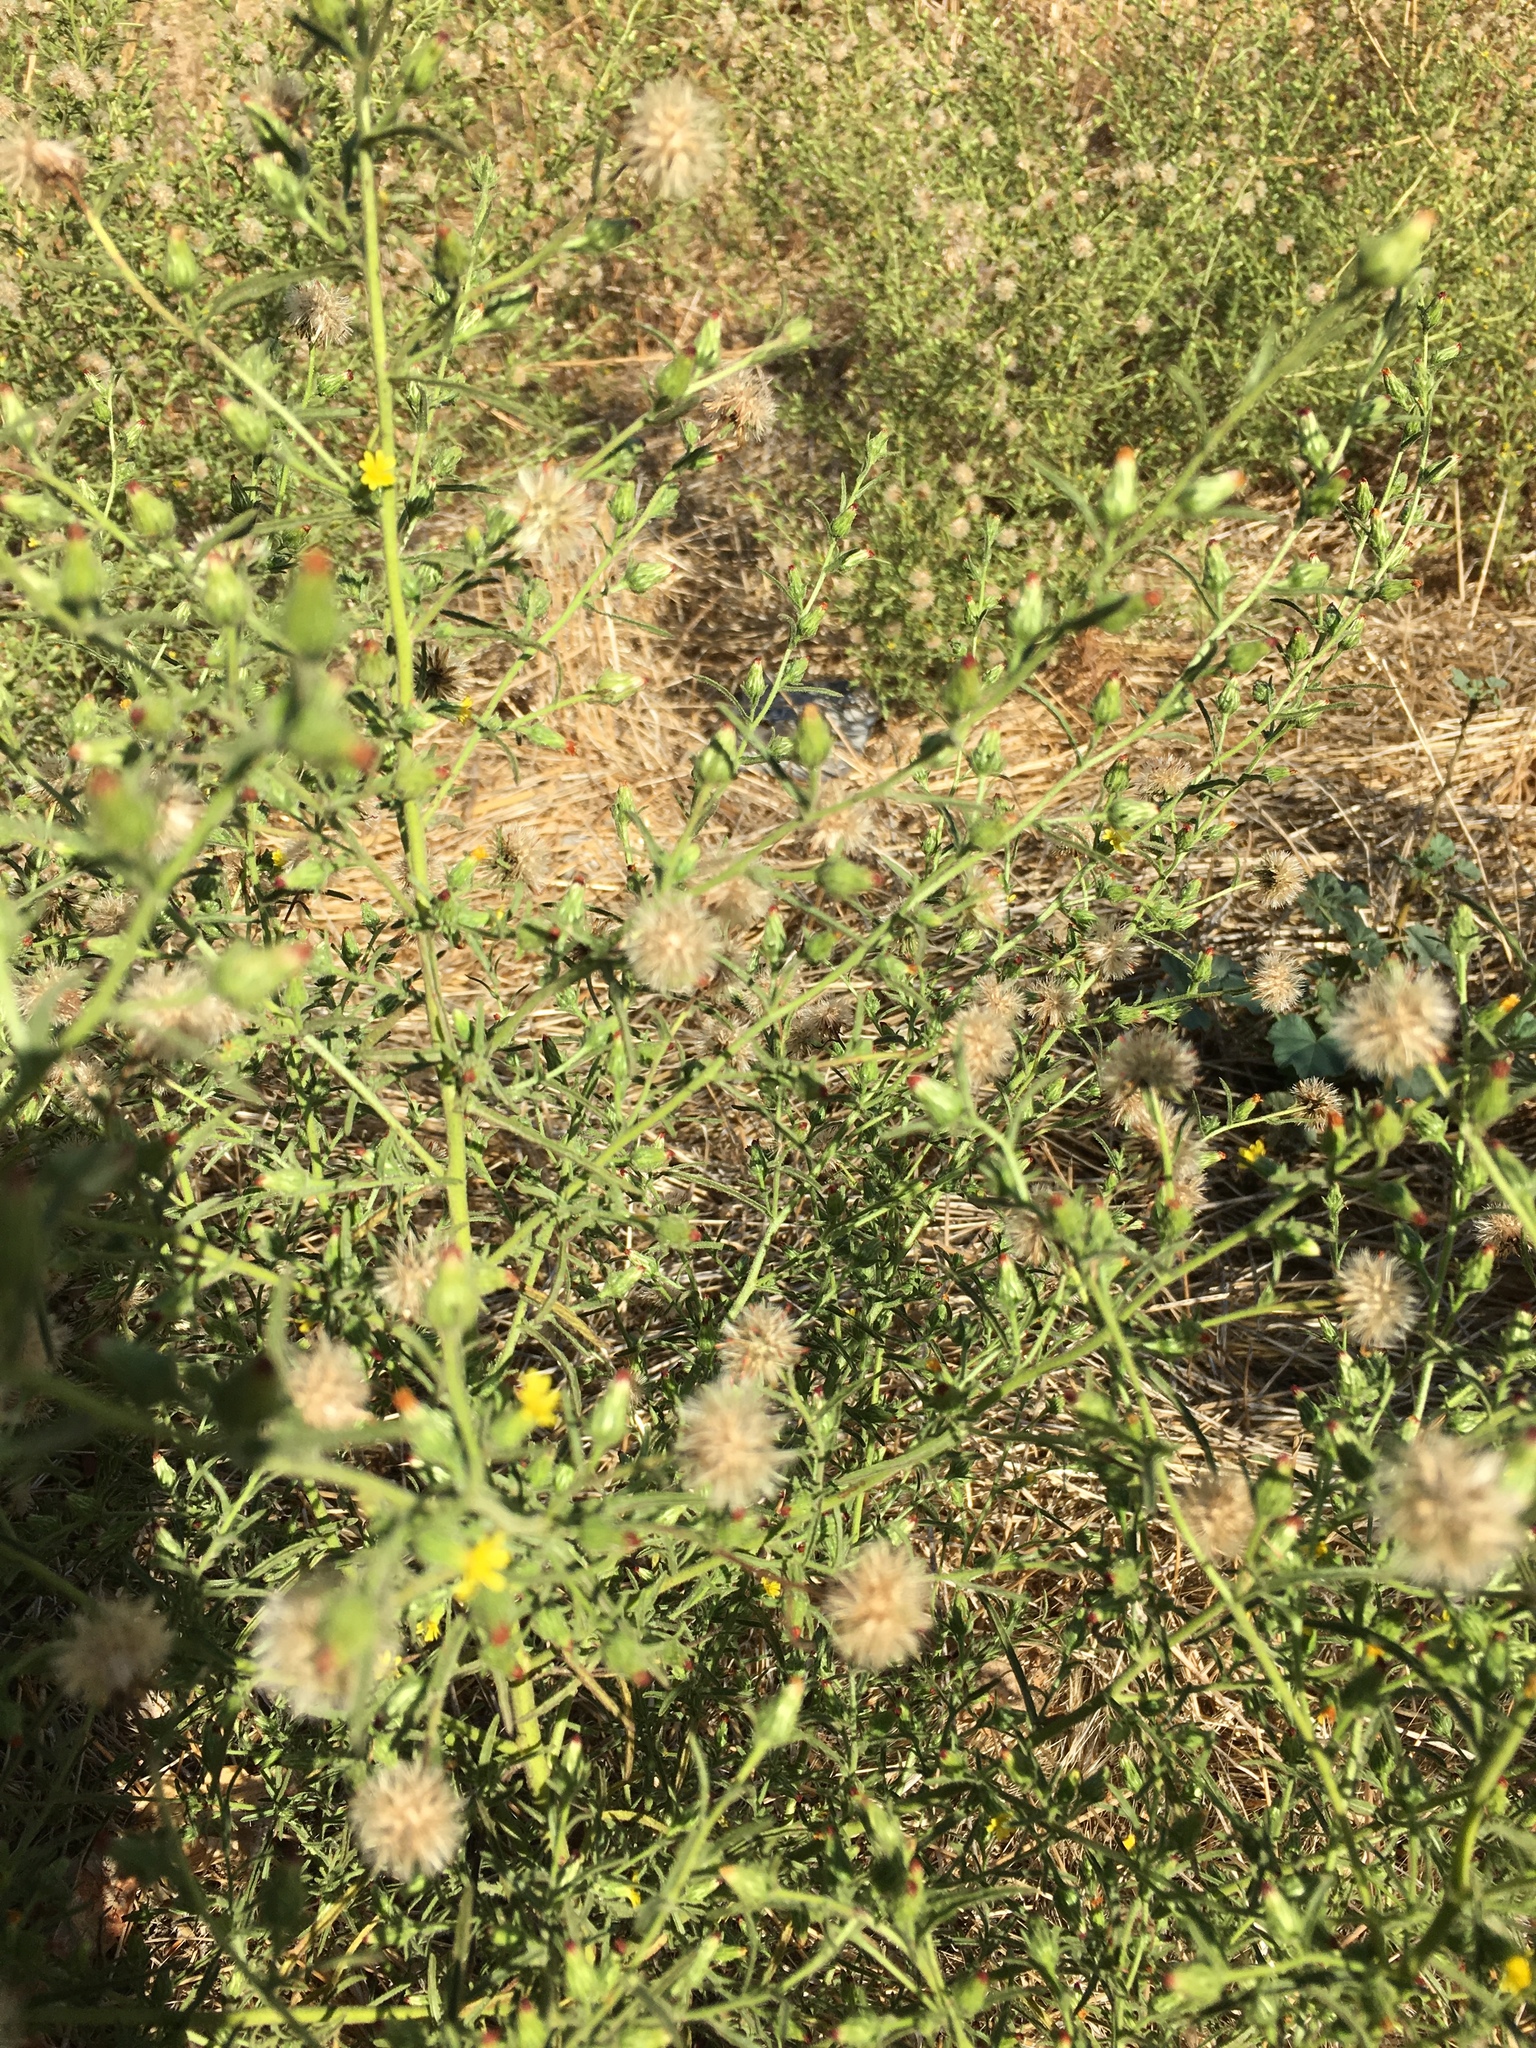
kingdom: Plantae
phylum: Tracheophyta
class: Magnoliopsida
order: Asterales
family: Asteraceae
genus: Dittrichia
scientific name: Dittrichia graveolens
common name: Stinking fleabane
